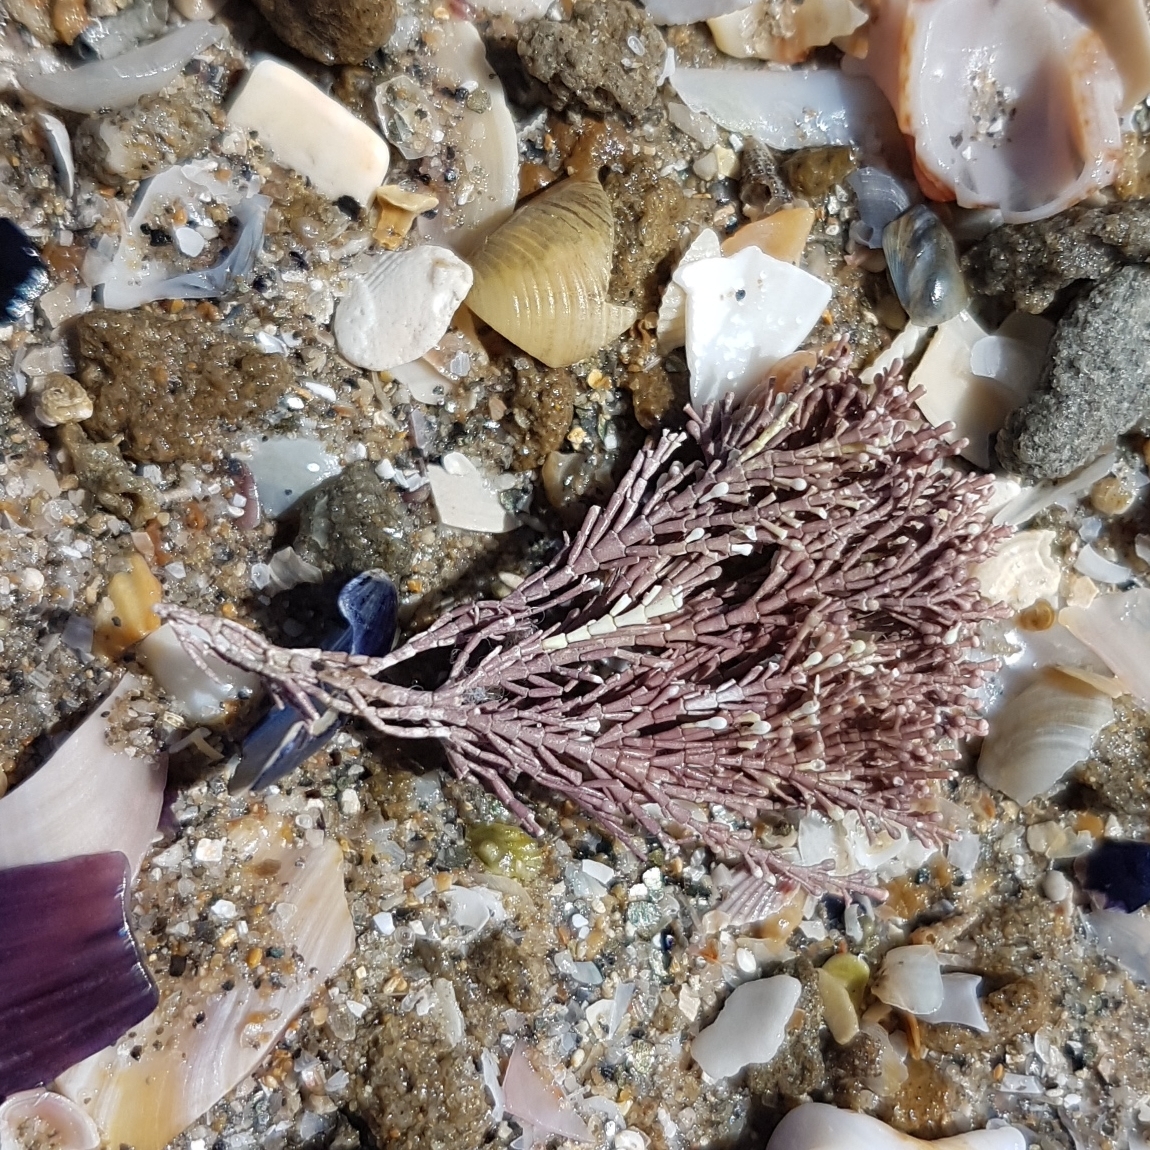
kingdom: Plantae
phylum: Rhodophyta
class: Florideophyceae
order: Corallinales
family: Corallinaceae
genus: Corallina
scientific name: Corallina officinalis
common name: Coral weed
